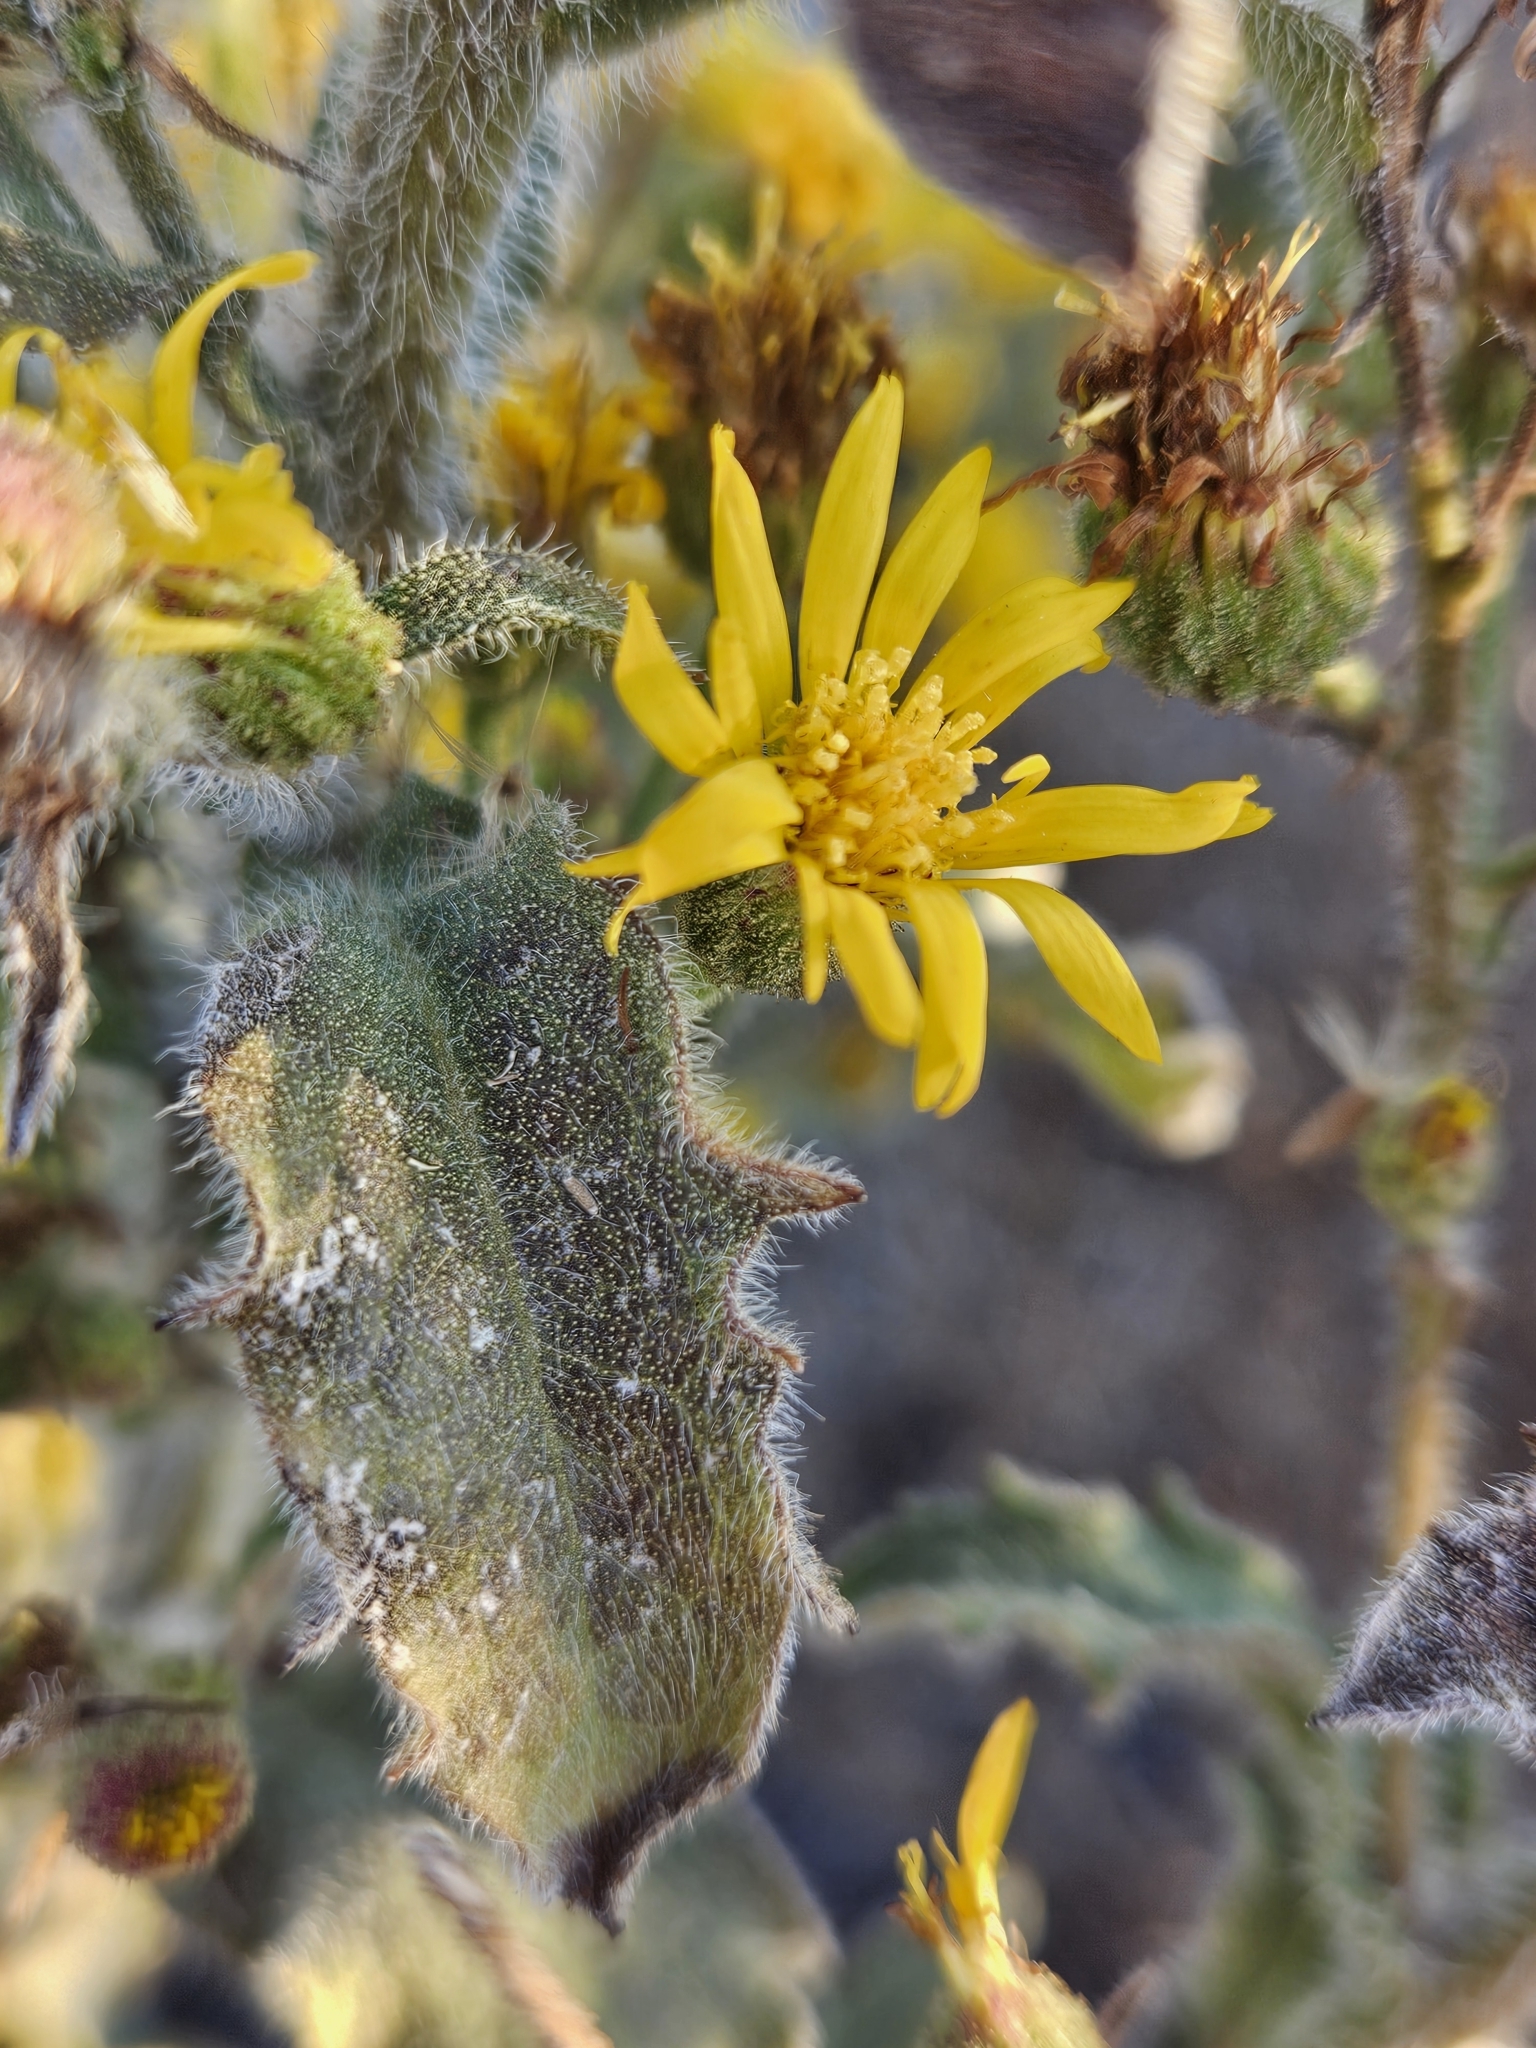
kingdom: Plantae
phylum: Tracheophyta
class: Magnoliopsida
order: Asterales
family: Asteraceae
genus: Heterotheca
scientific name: Heterotheca grandiflora
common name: Telegraphweed
